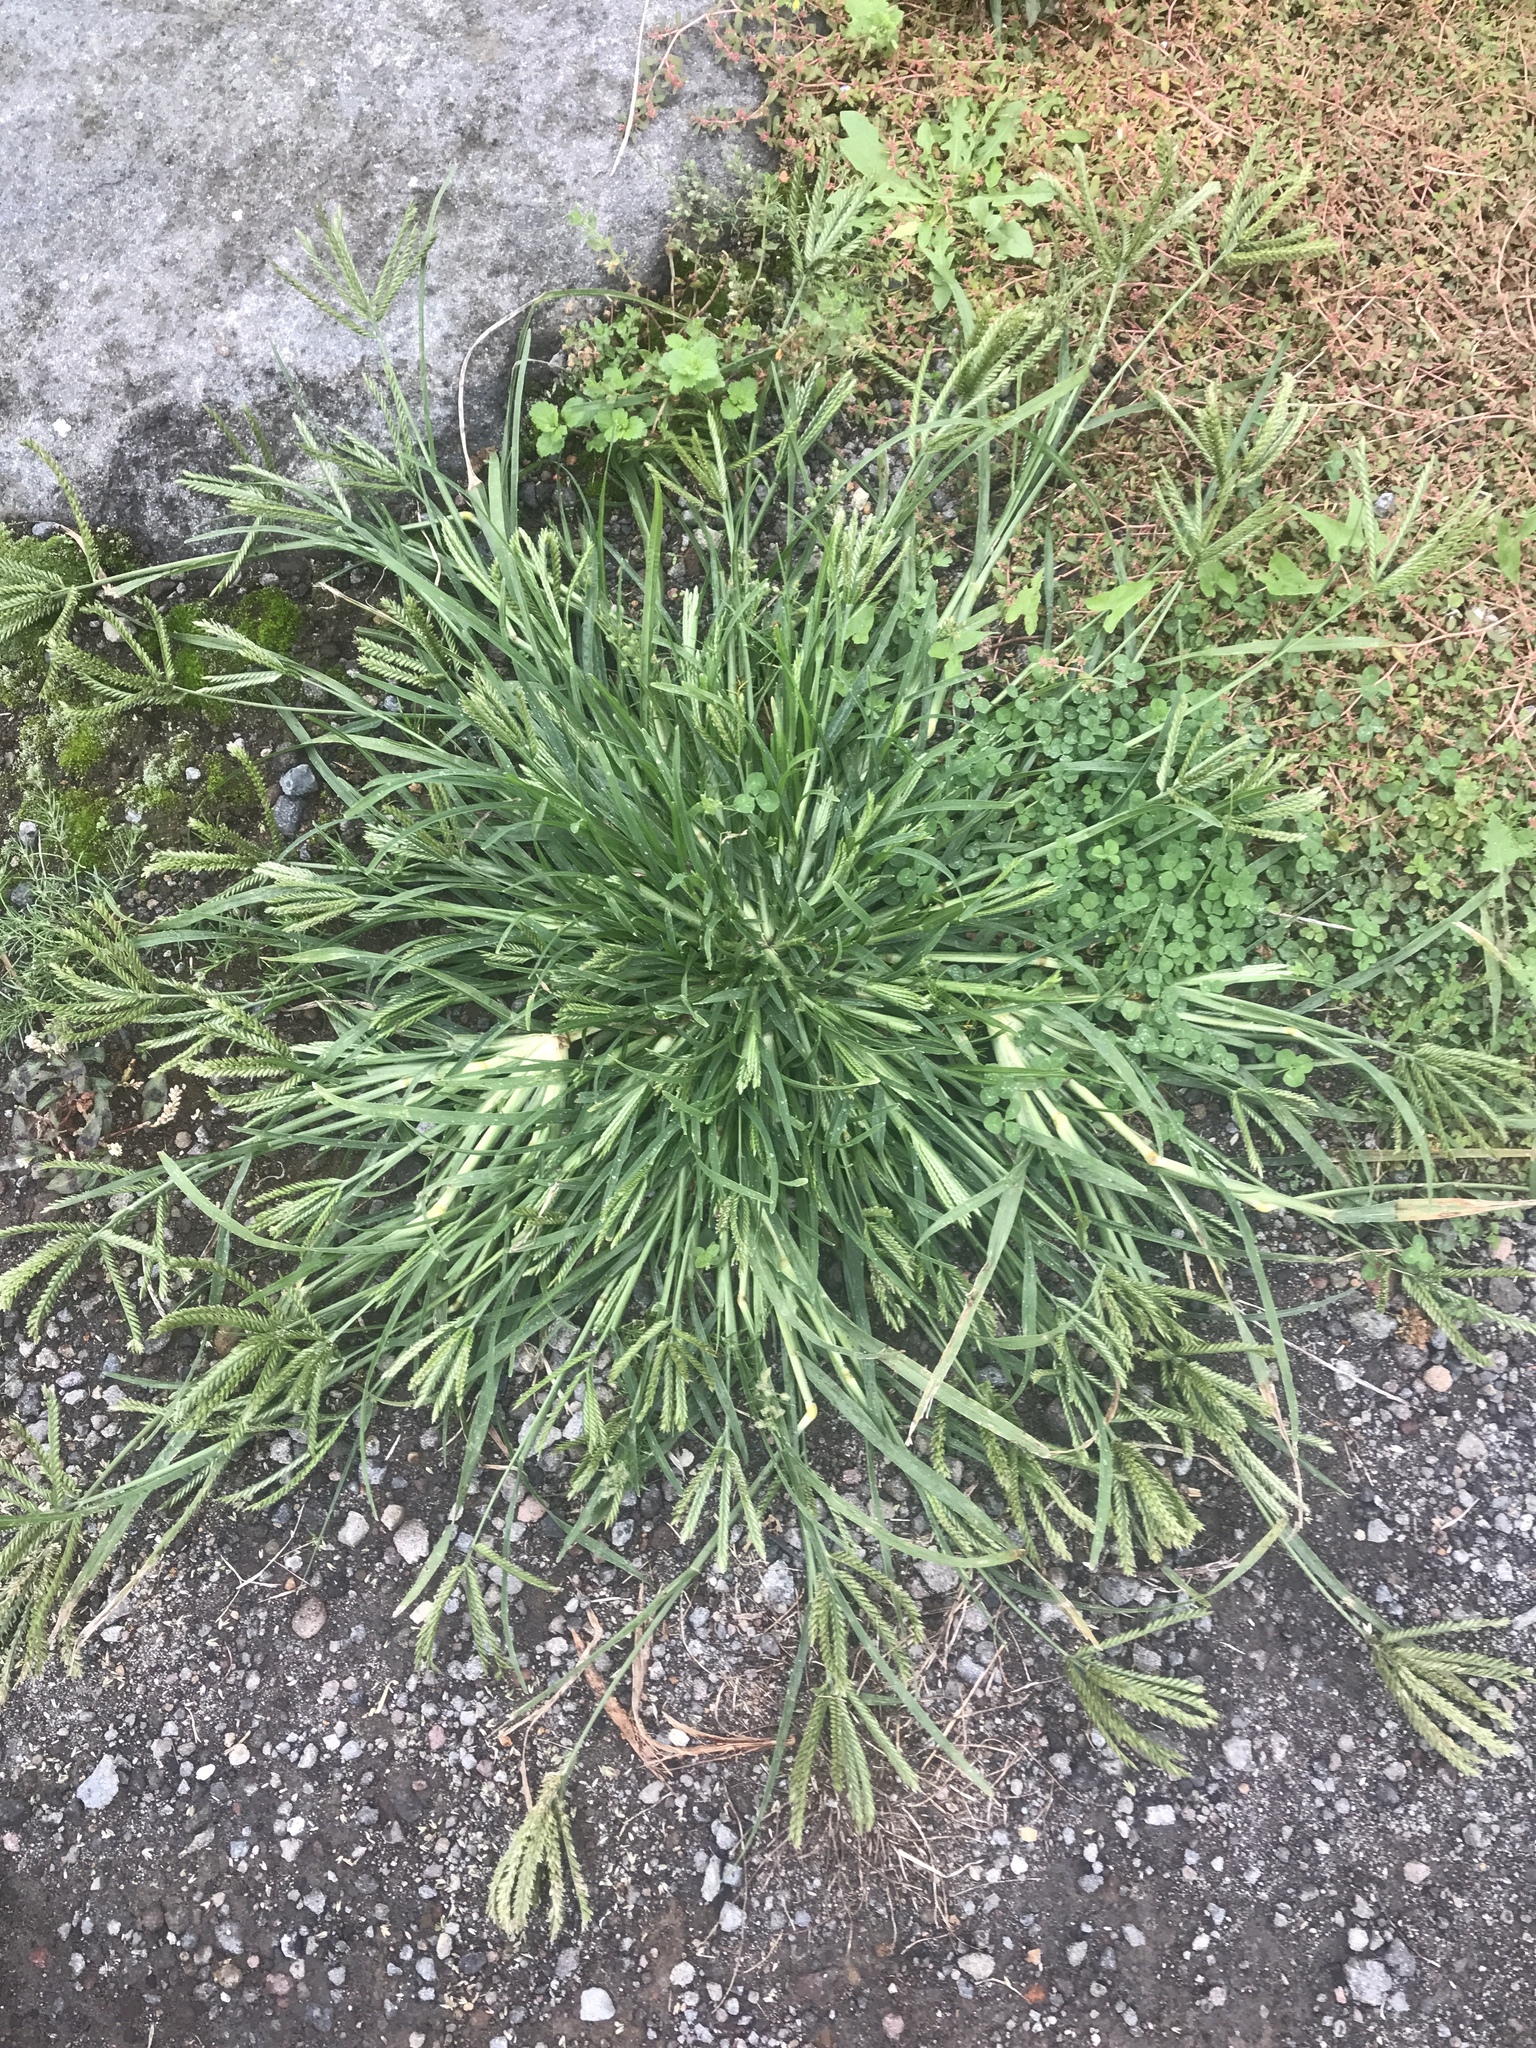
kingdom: Plantae
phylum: Tracheophyta
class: Liliopsida
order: Poales
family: Poaceae
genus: Eleusine
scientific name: Eleusine indica
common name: Yard-grass
